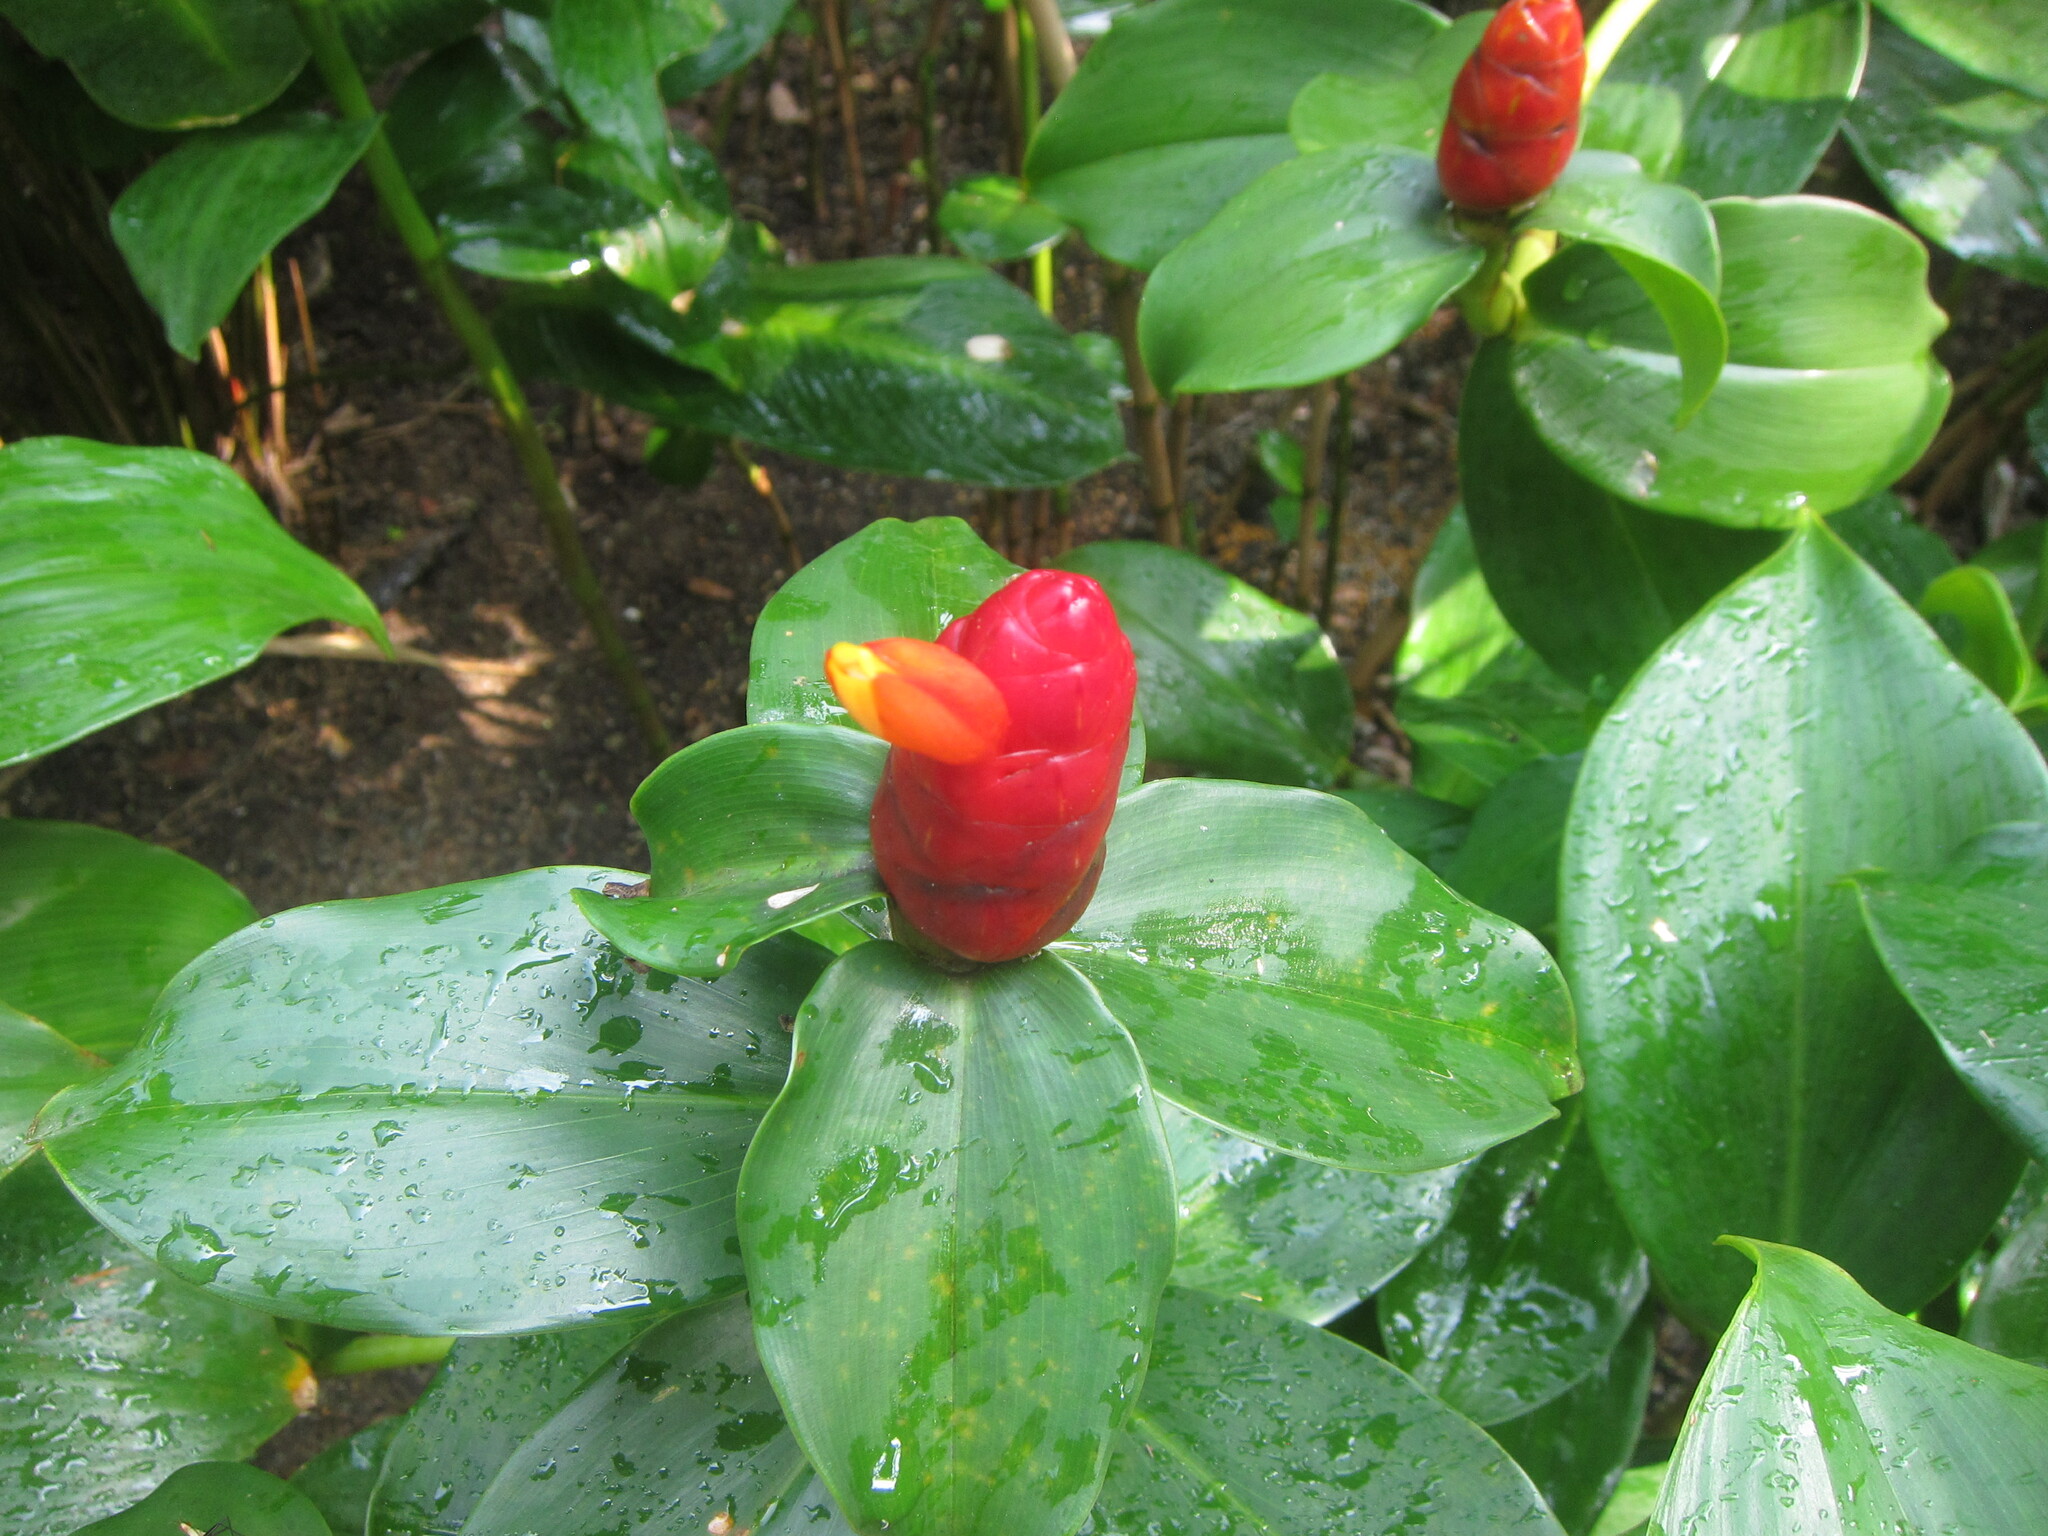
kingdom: Plantae
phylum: Tracheophyta
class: Liliopsida
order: Zingiberales
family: Costaceae
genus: Costus
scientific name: Costus woodsonii
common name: Scarlet spiral-ginger
